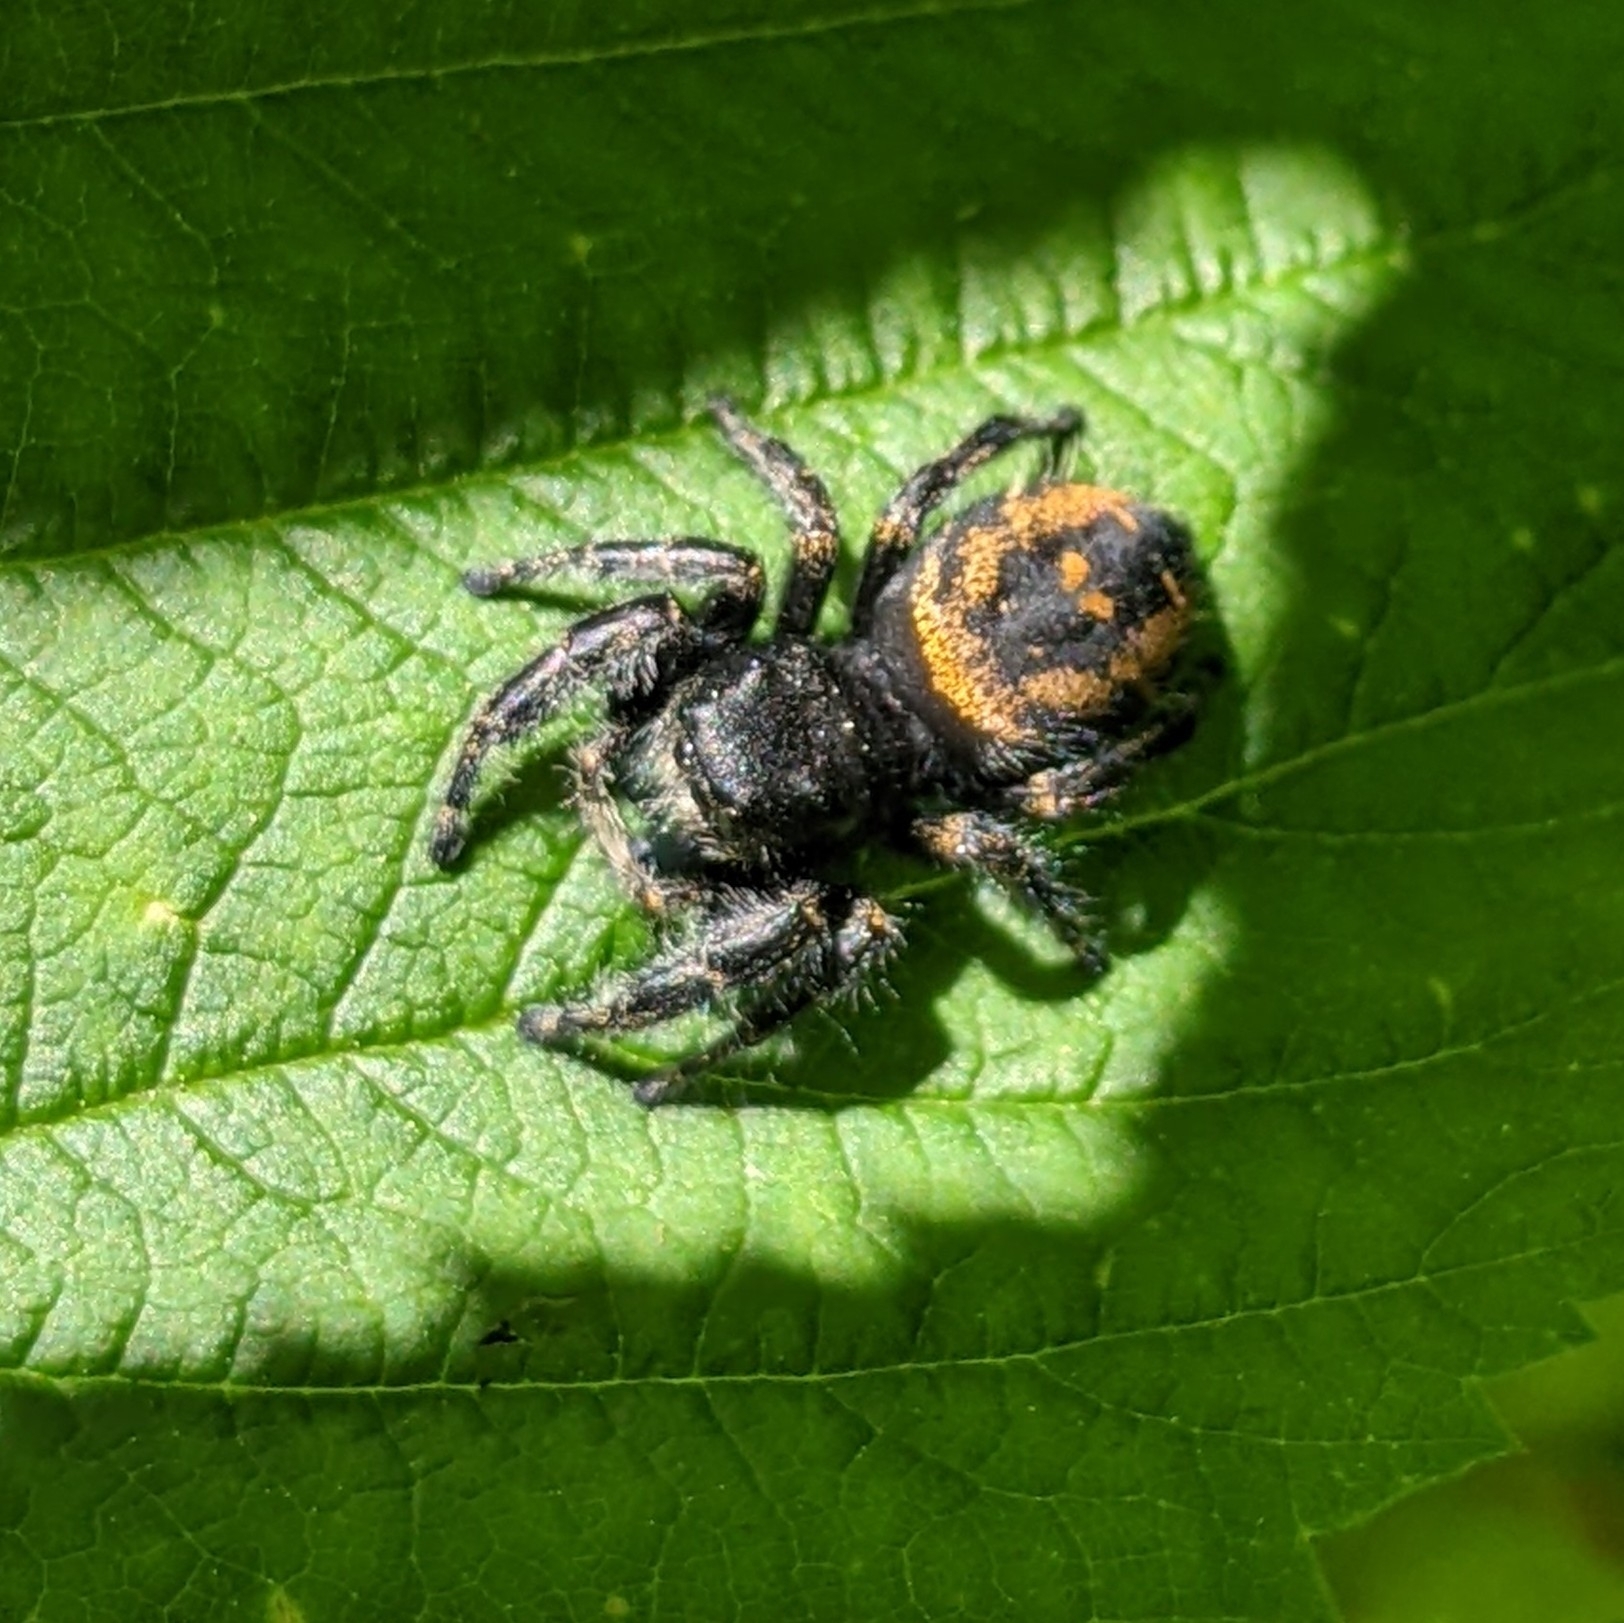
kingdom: Animalia
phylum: Arthropoda
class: Arachnida
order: Araneae
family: Salticidae
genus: Phidippus
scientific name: Phidippus johnsoni
